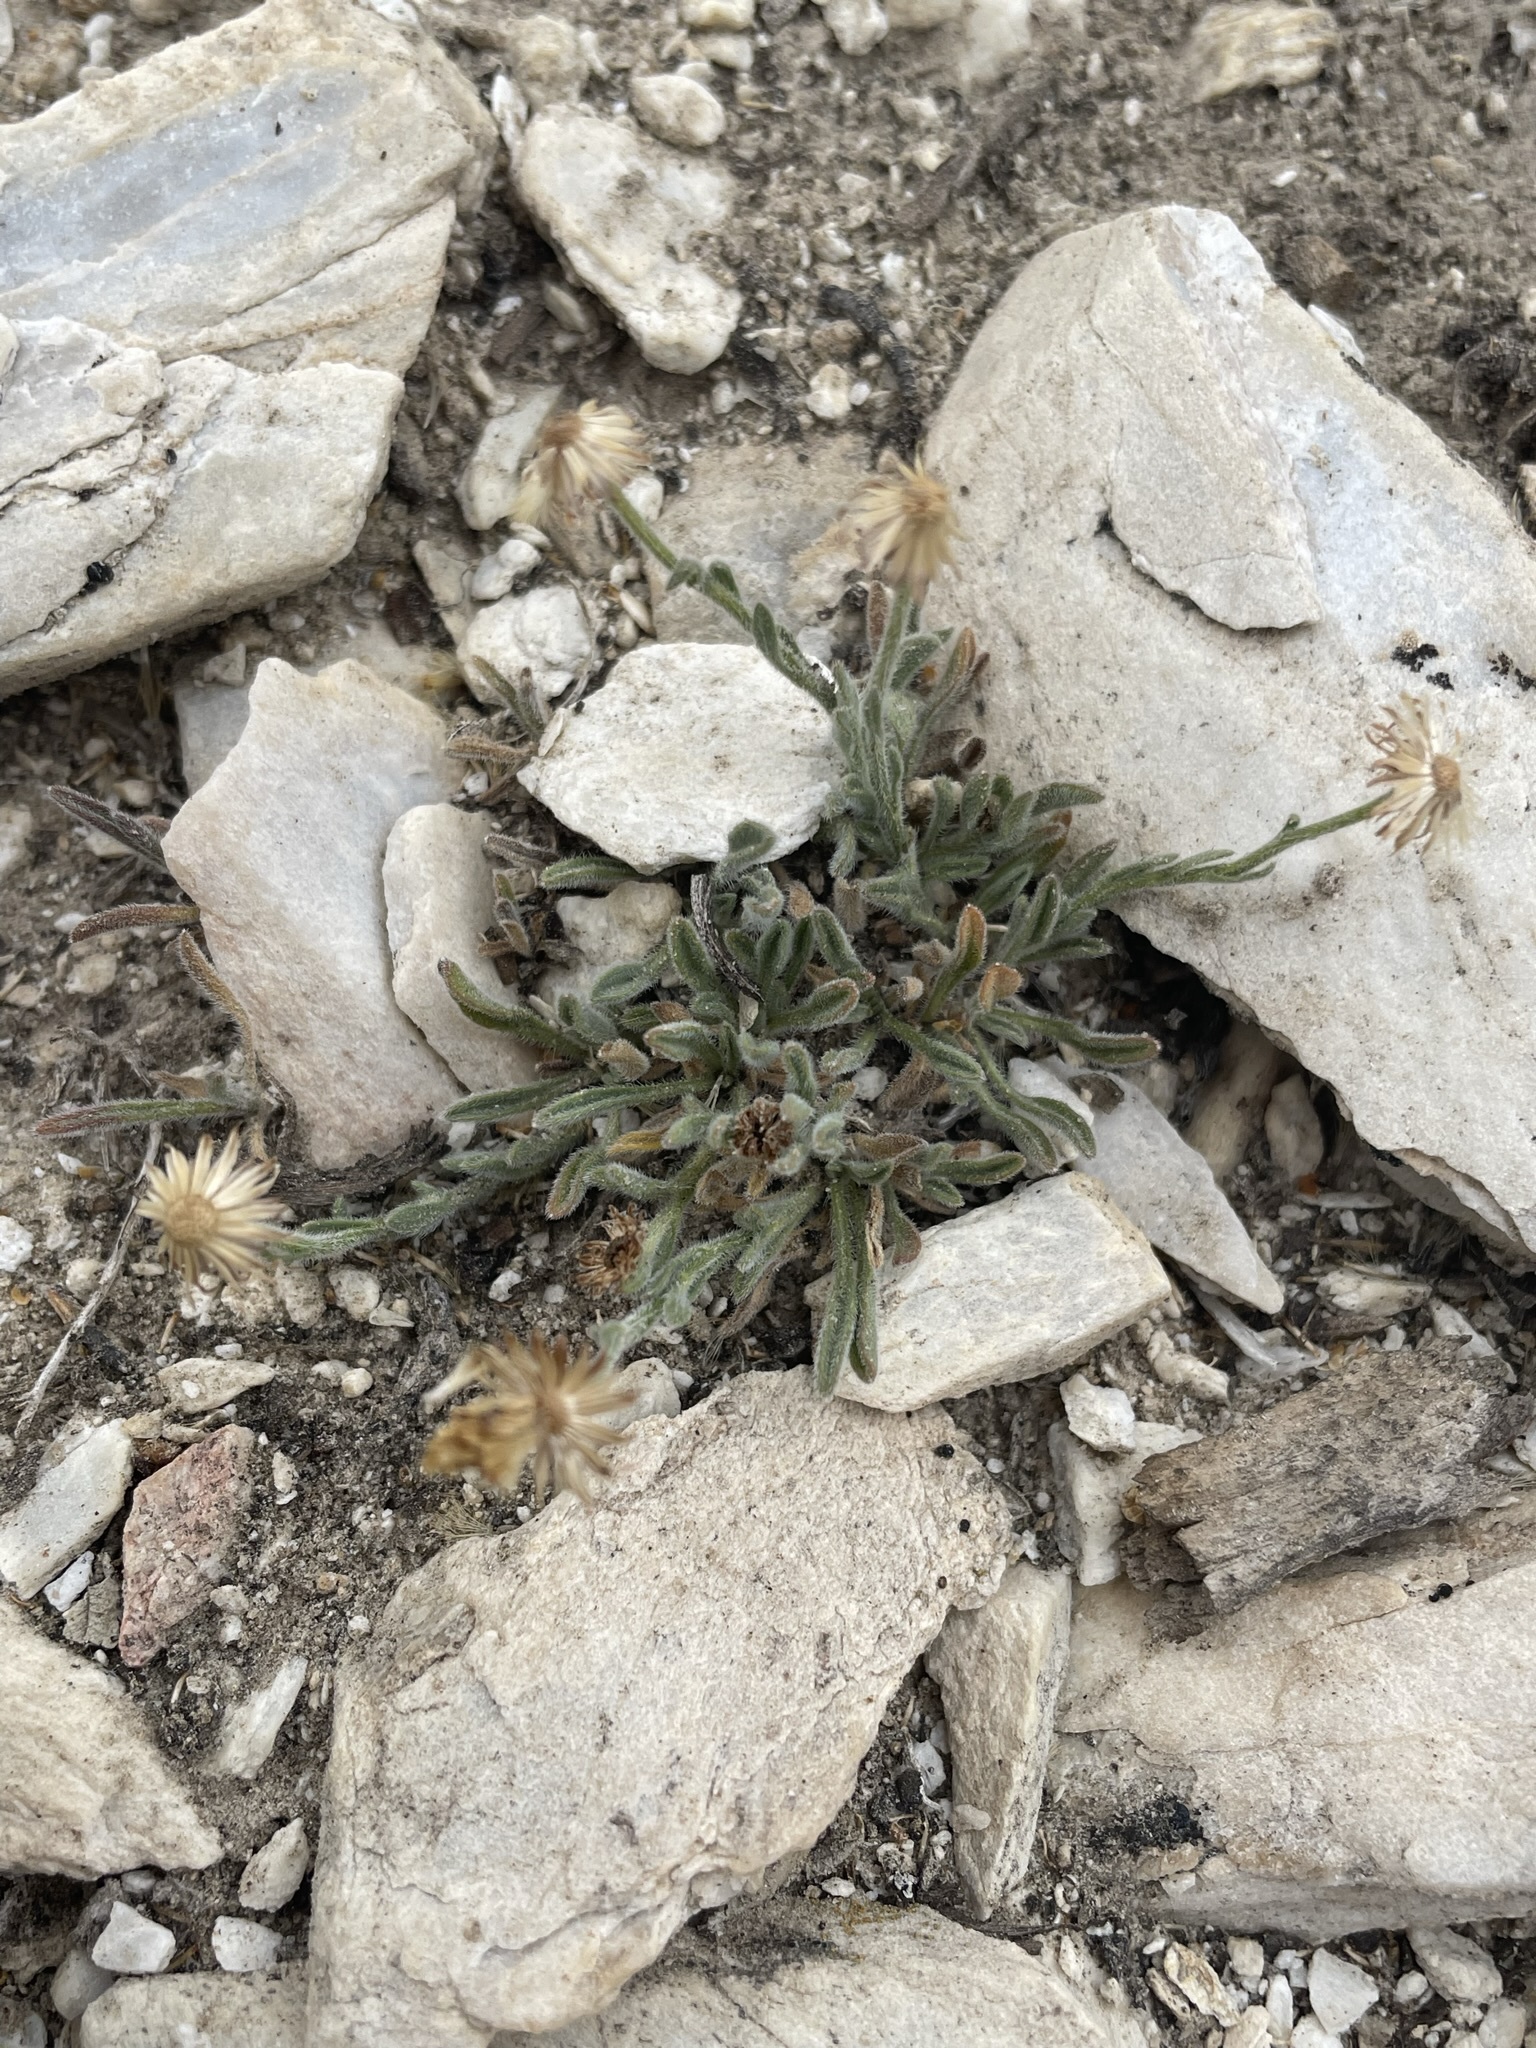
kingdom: Plantae
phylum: Tracheophyta
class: Magnoliopsida
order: Asterales
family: Asteraceae
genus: Erigeron
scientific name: Erigeron clokeyi
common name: Clokey's fleabane
